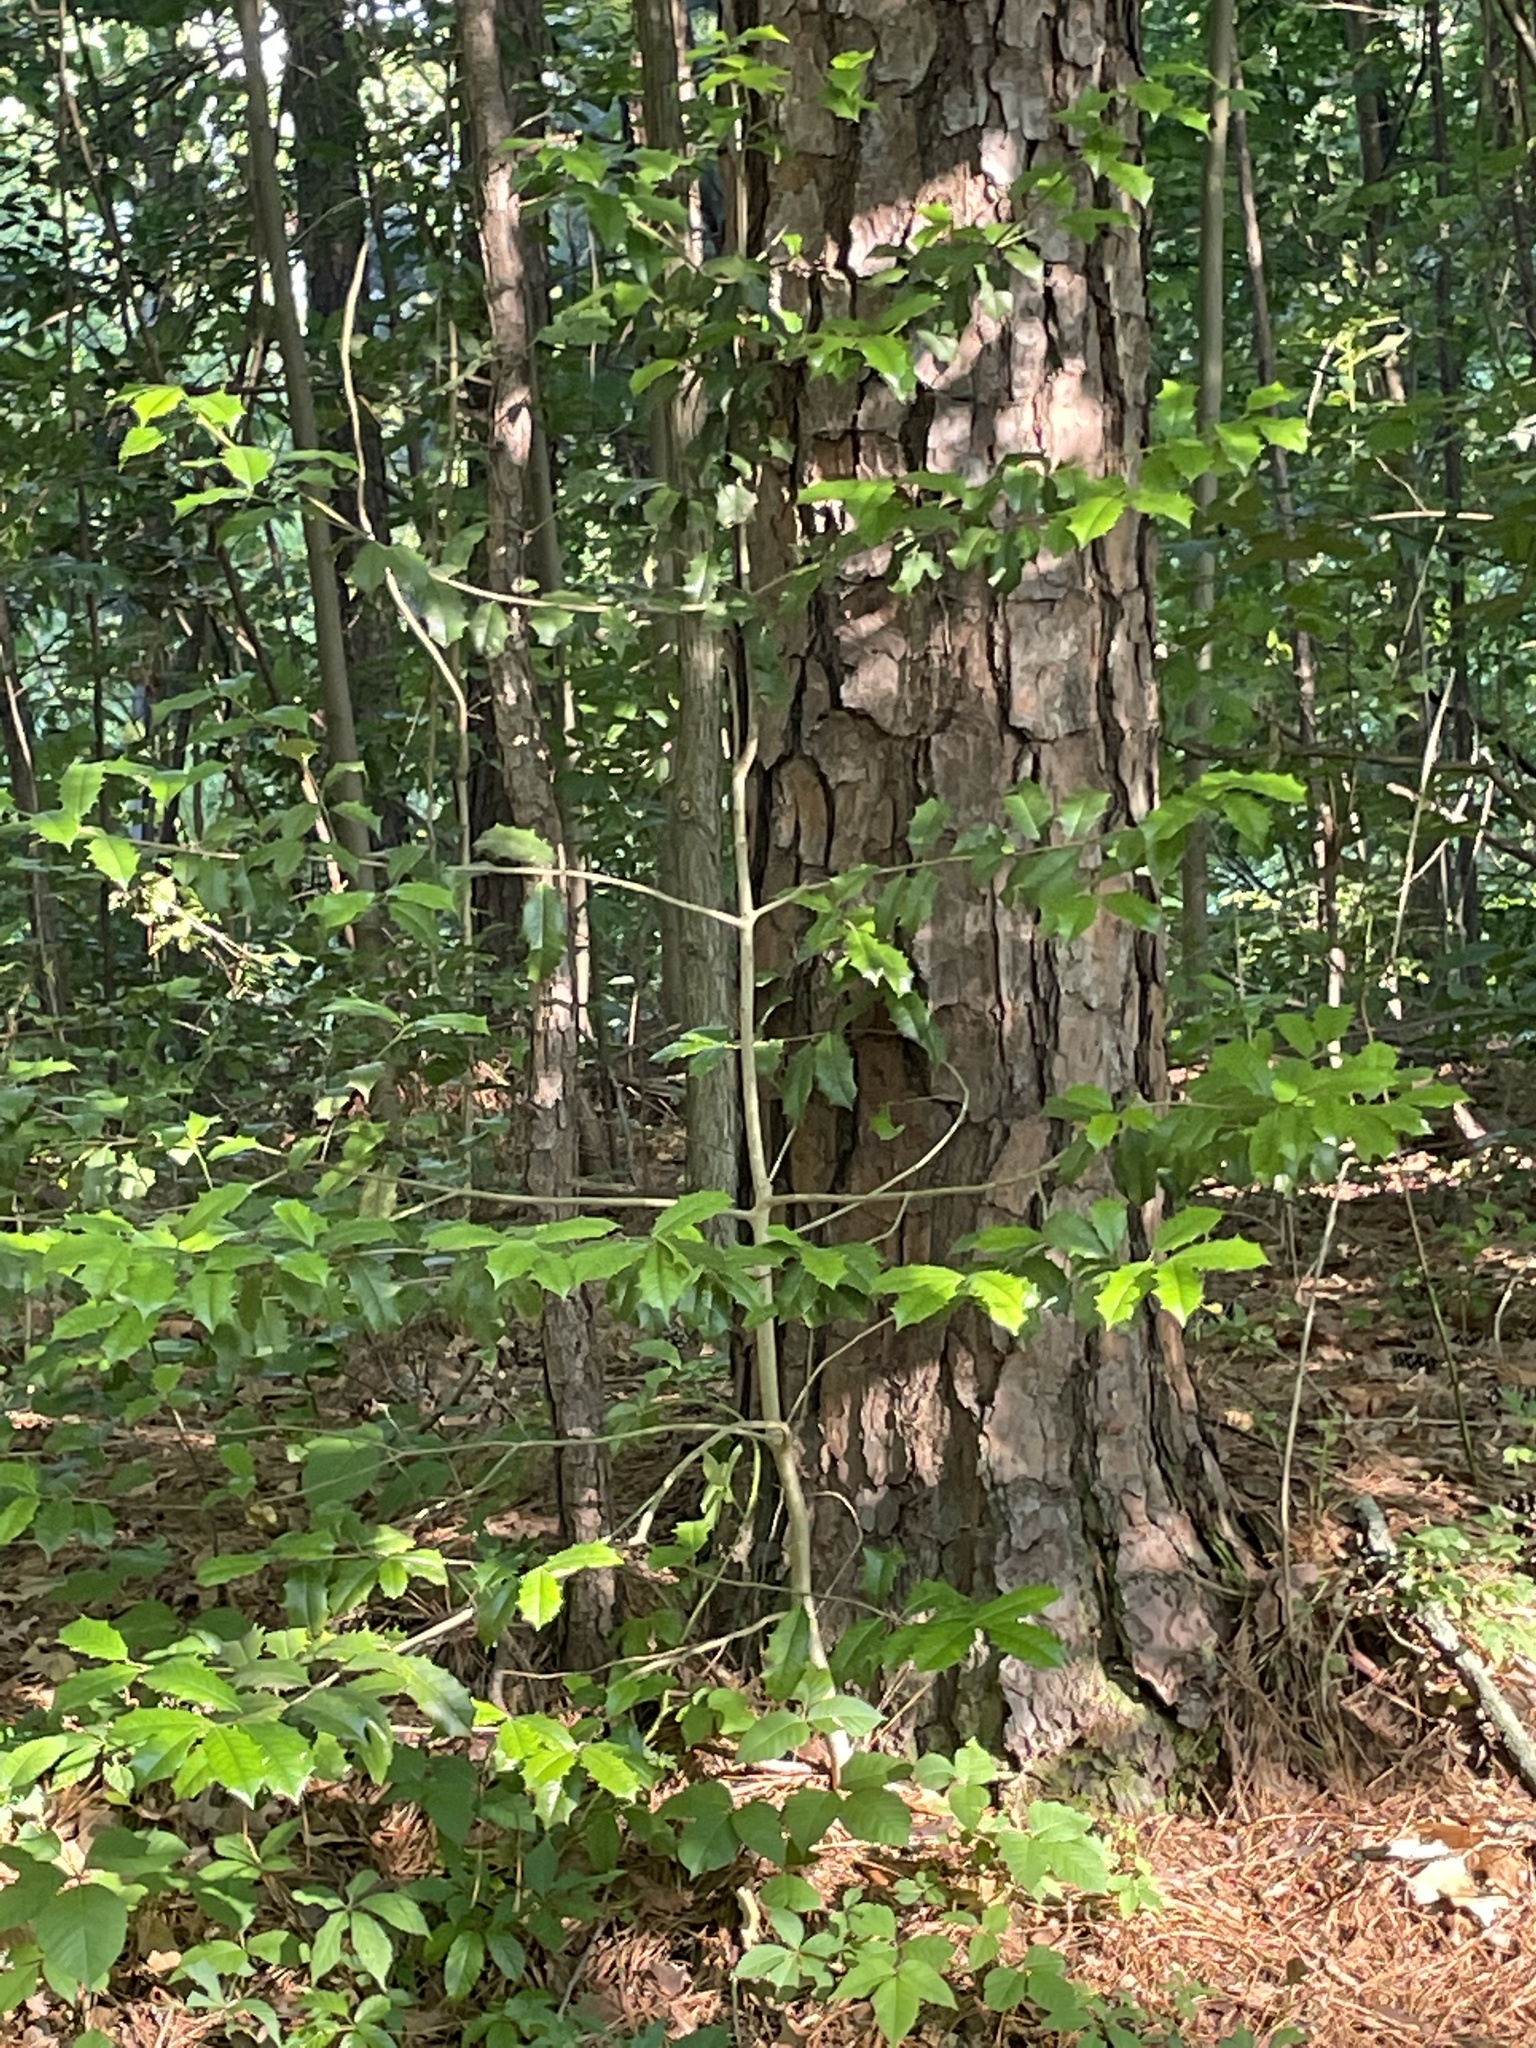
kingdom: Plantae
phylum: Tracheophyta
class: Magnoliopsida
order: Aquifoliales
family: Aquifoliaceae
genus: Ilex
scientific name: Ilex opaca
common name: American holly
